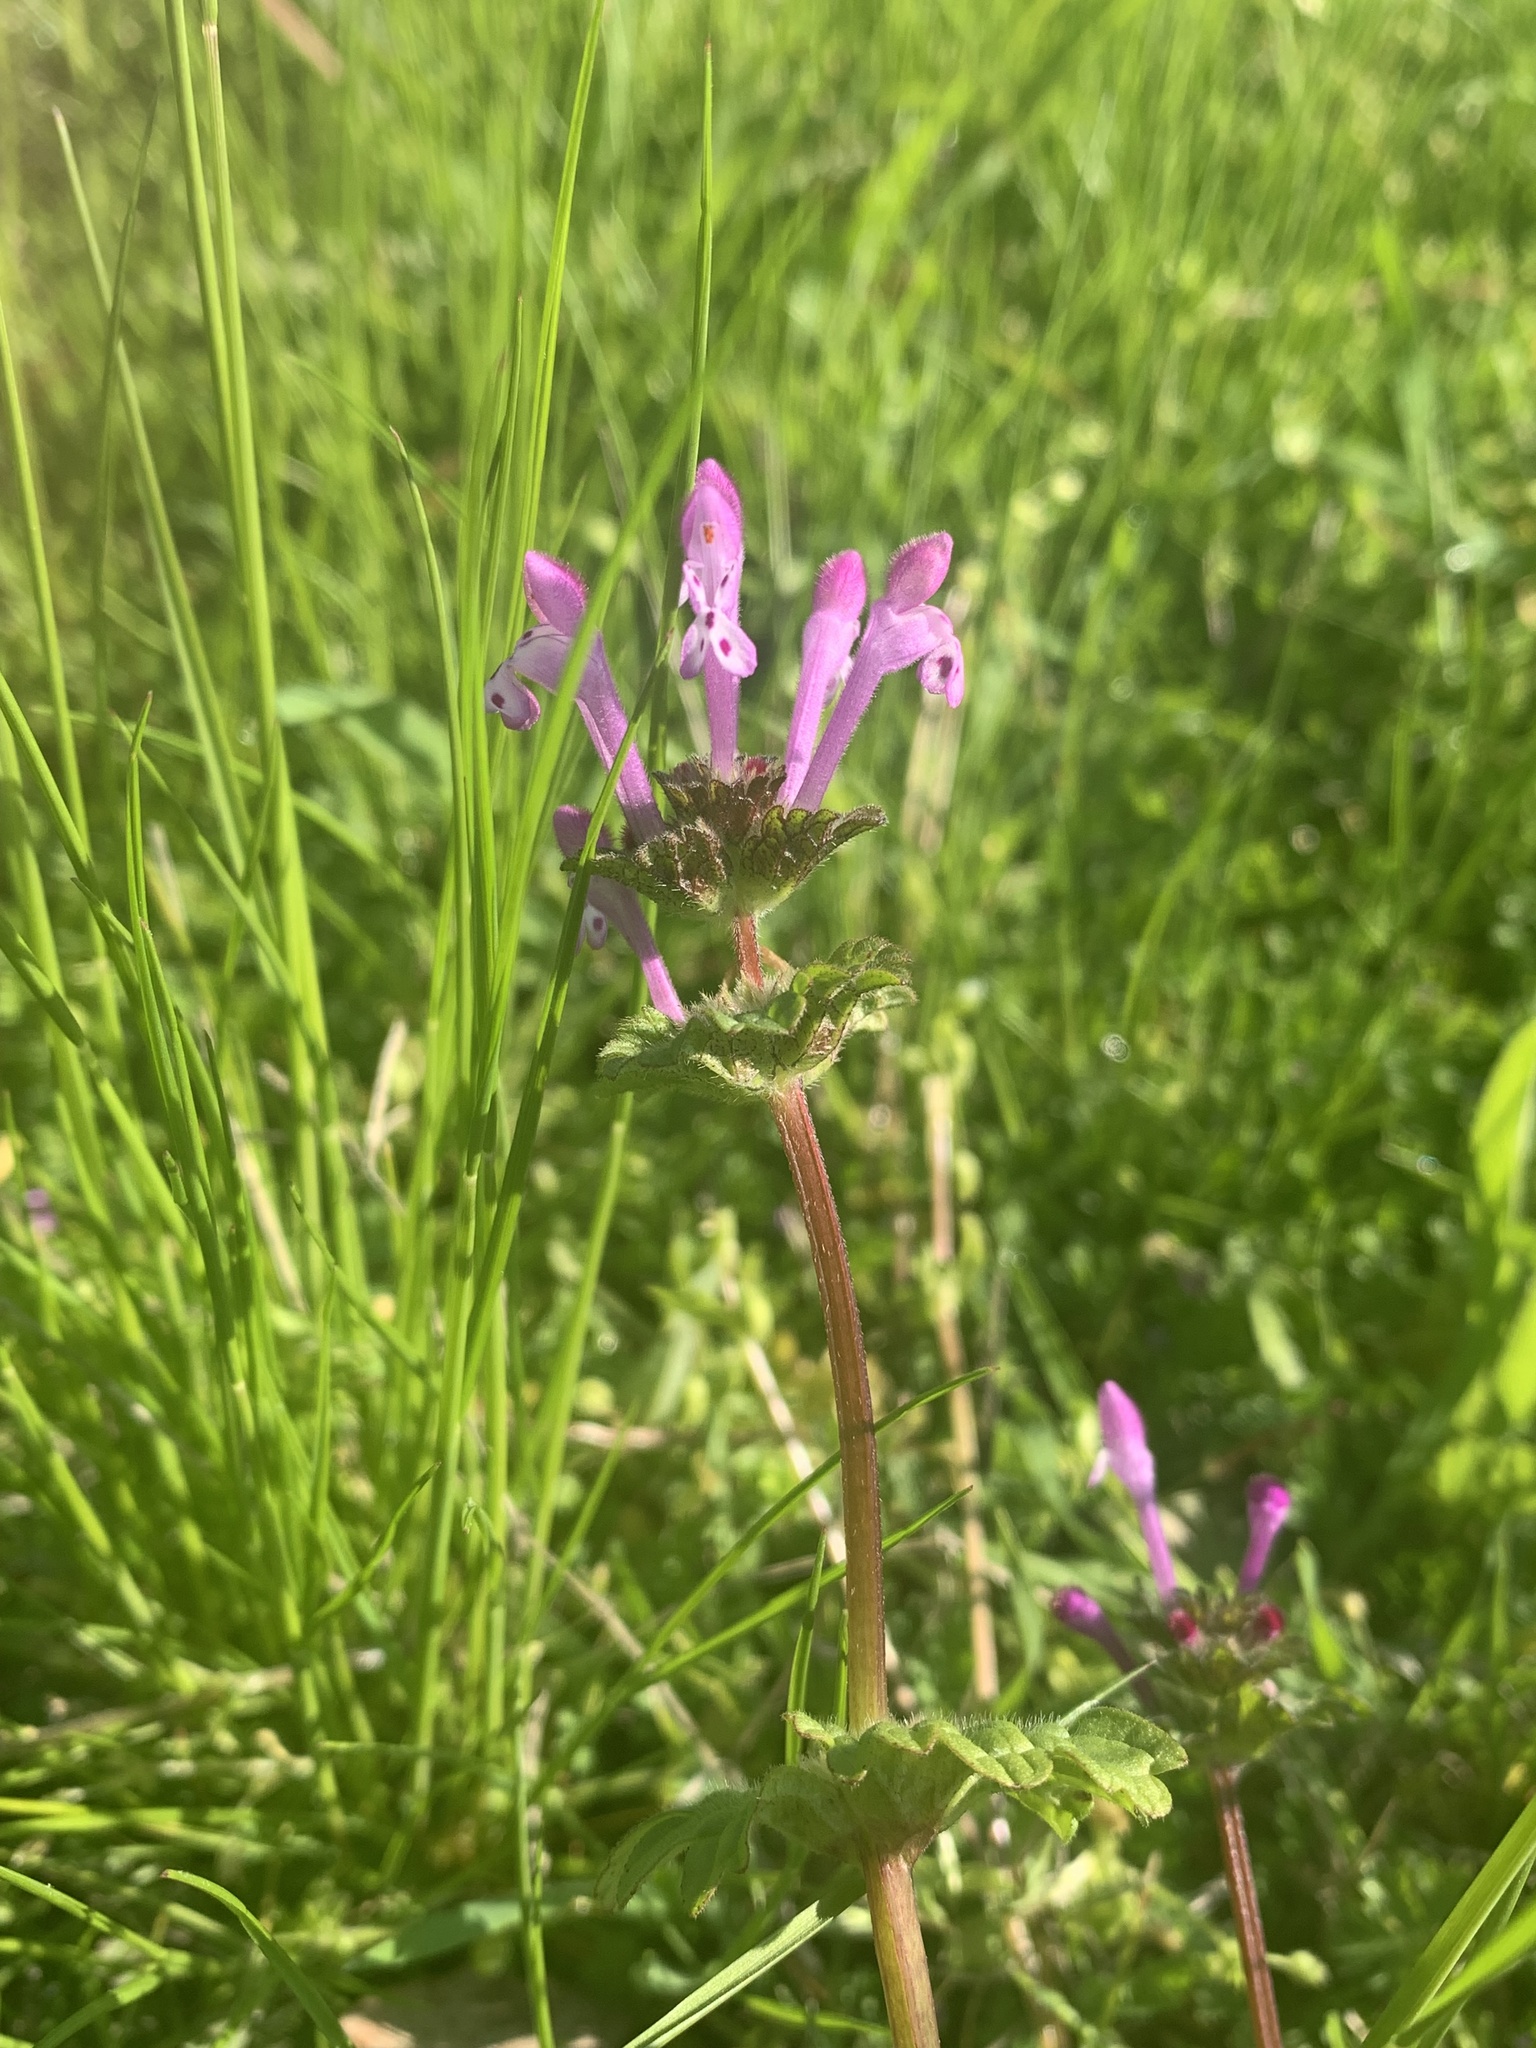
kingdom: Plantae
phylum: Tracheophyta
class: Magnoliopsida
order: Lamiales
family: Lamiaceae
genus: Lamium
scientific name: Lamium amplexicaule
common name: Henbit dead-nettle
